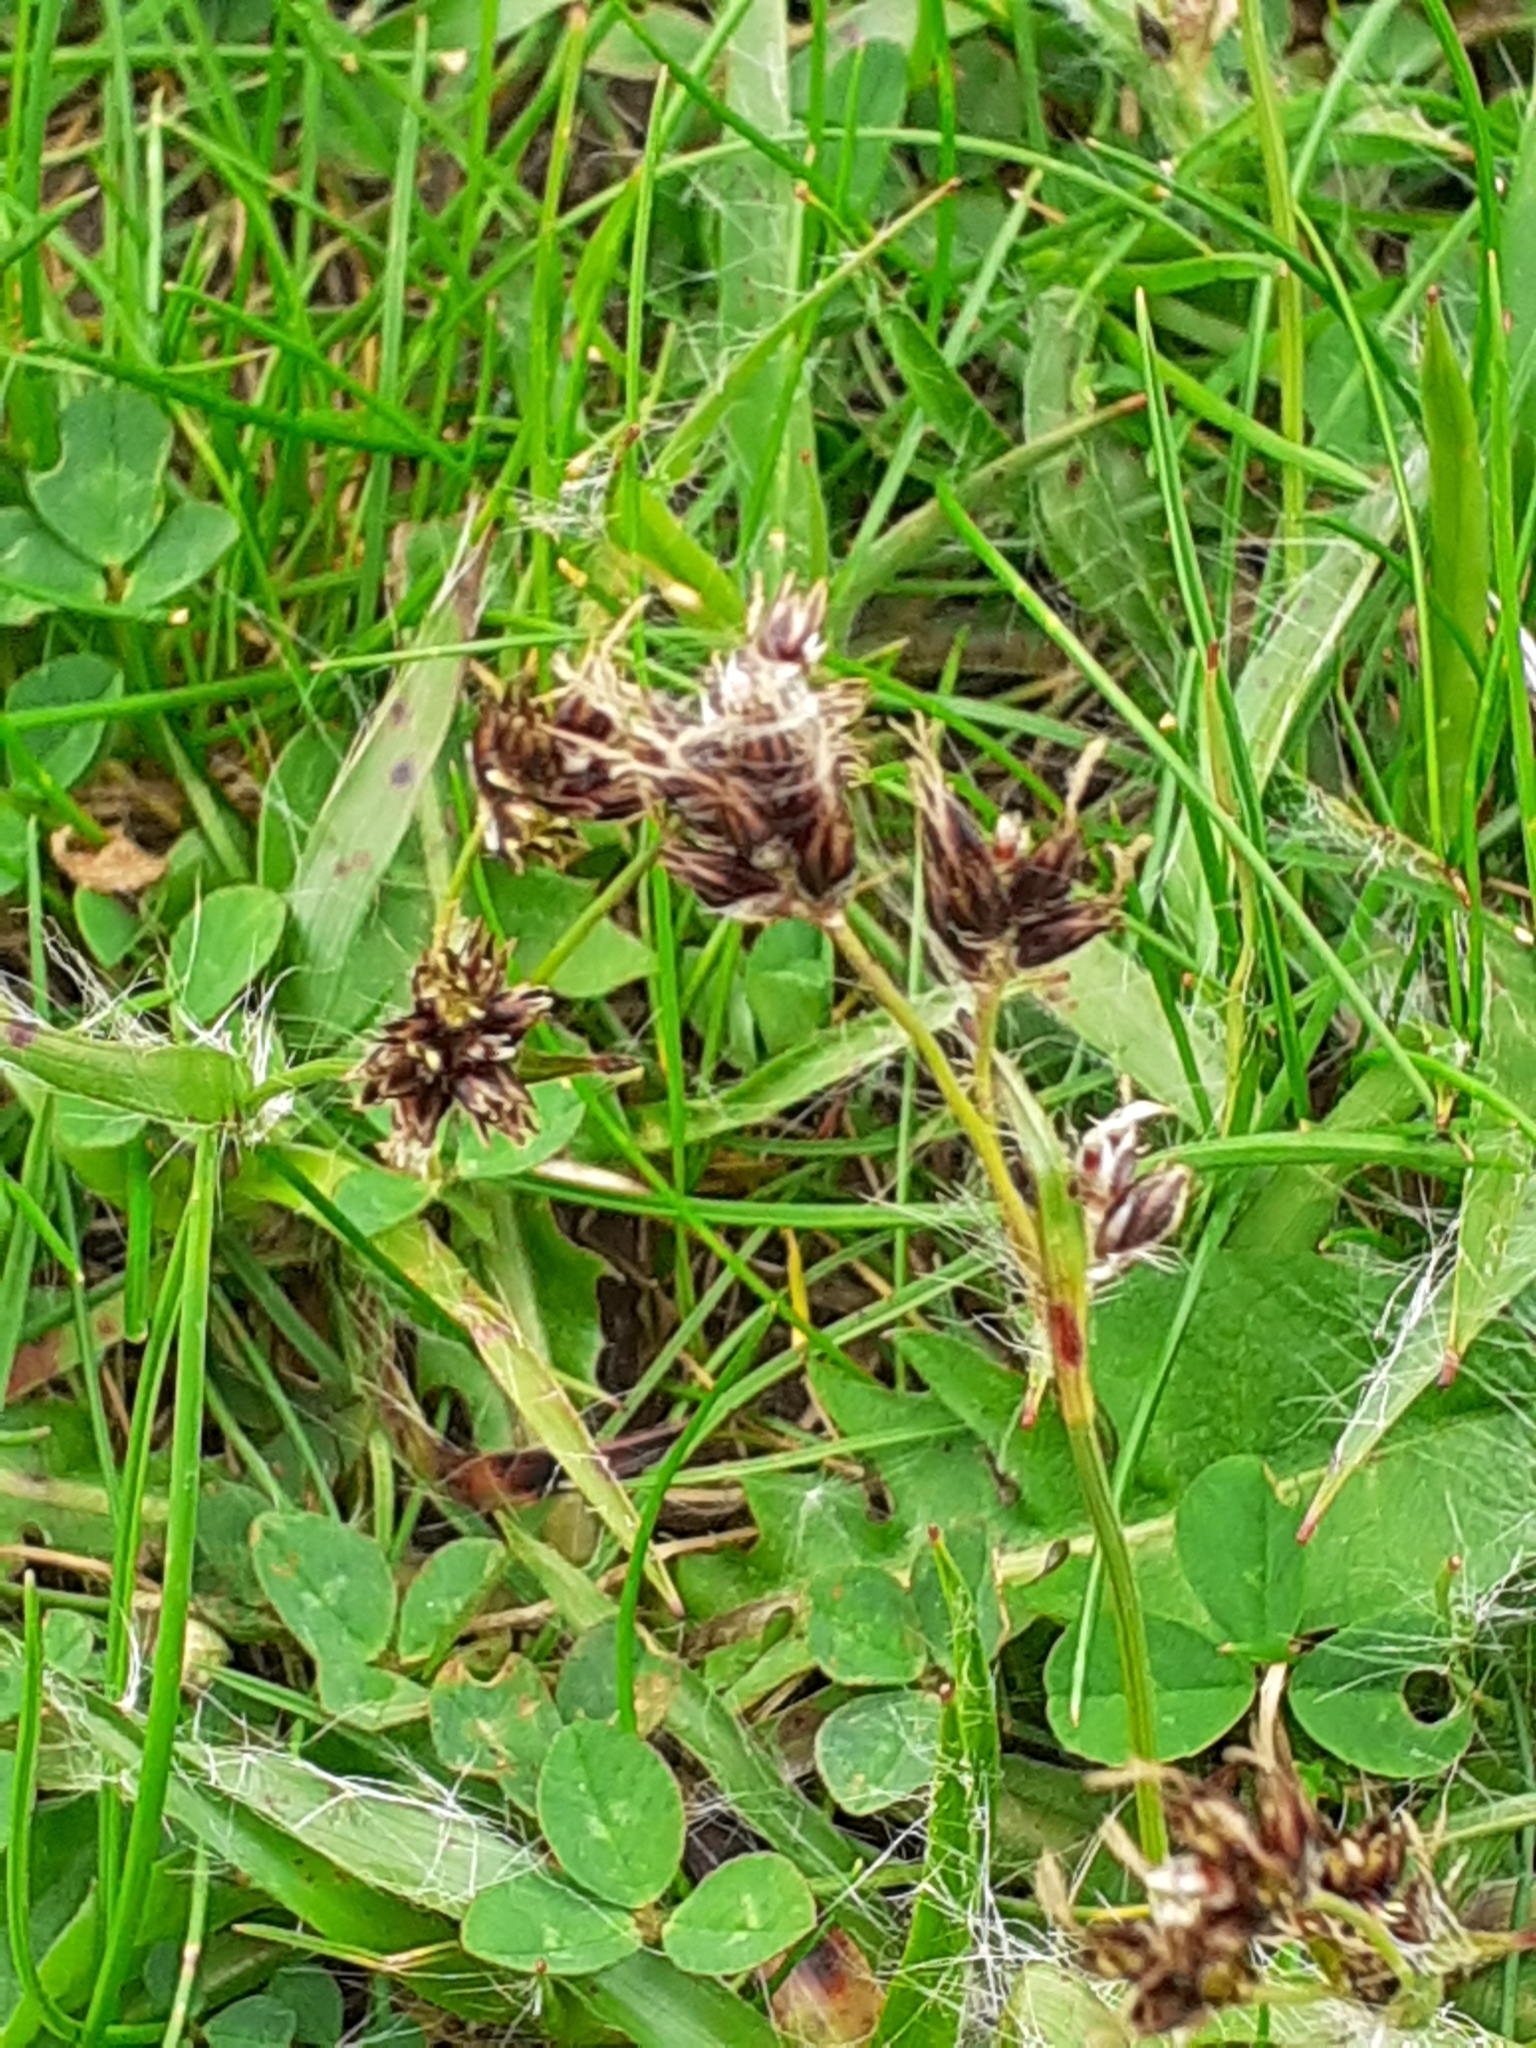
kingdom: Plantae
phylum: Tracheophyta
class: Liliopsida
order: Poales
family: Juncaceae
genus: Luzula
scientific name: Luzula campestris
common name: Field wood-rush
